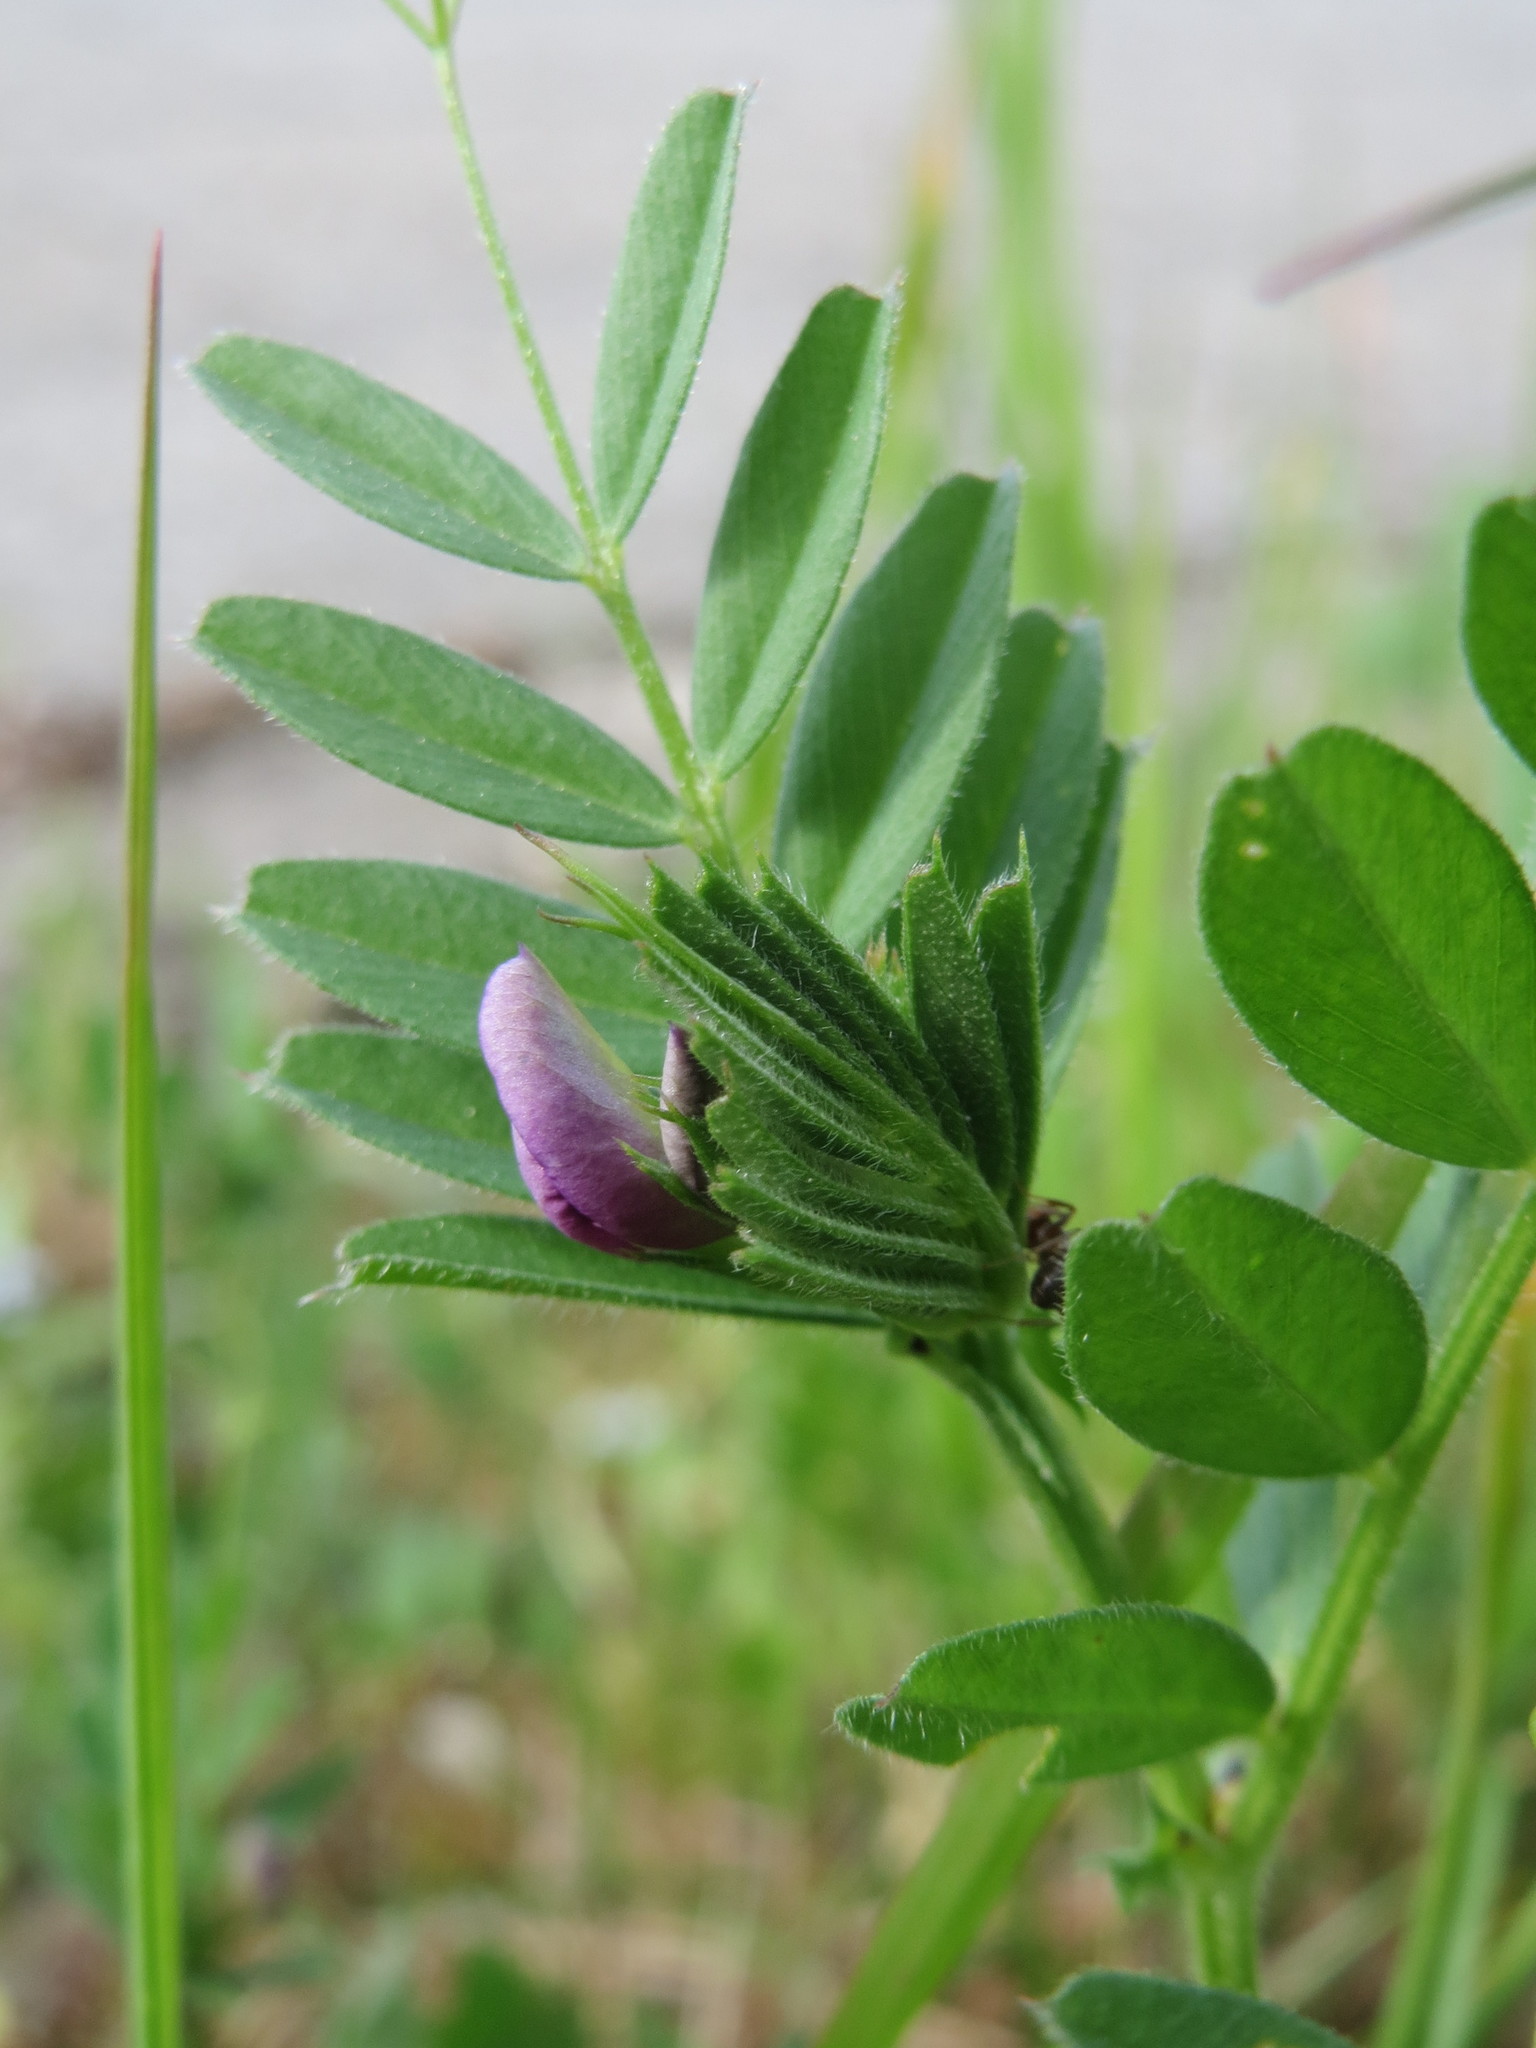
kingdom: Plantae
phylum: Tracheophyta
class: Magnoliopsida
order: Fabales
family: Fabaceae
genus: Vicia
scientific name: Vicia sativa
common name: Garden vetch
